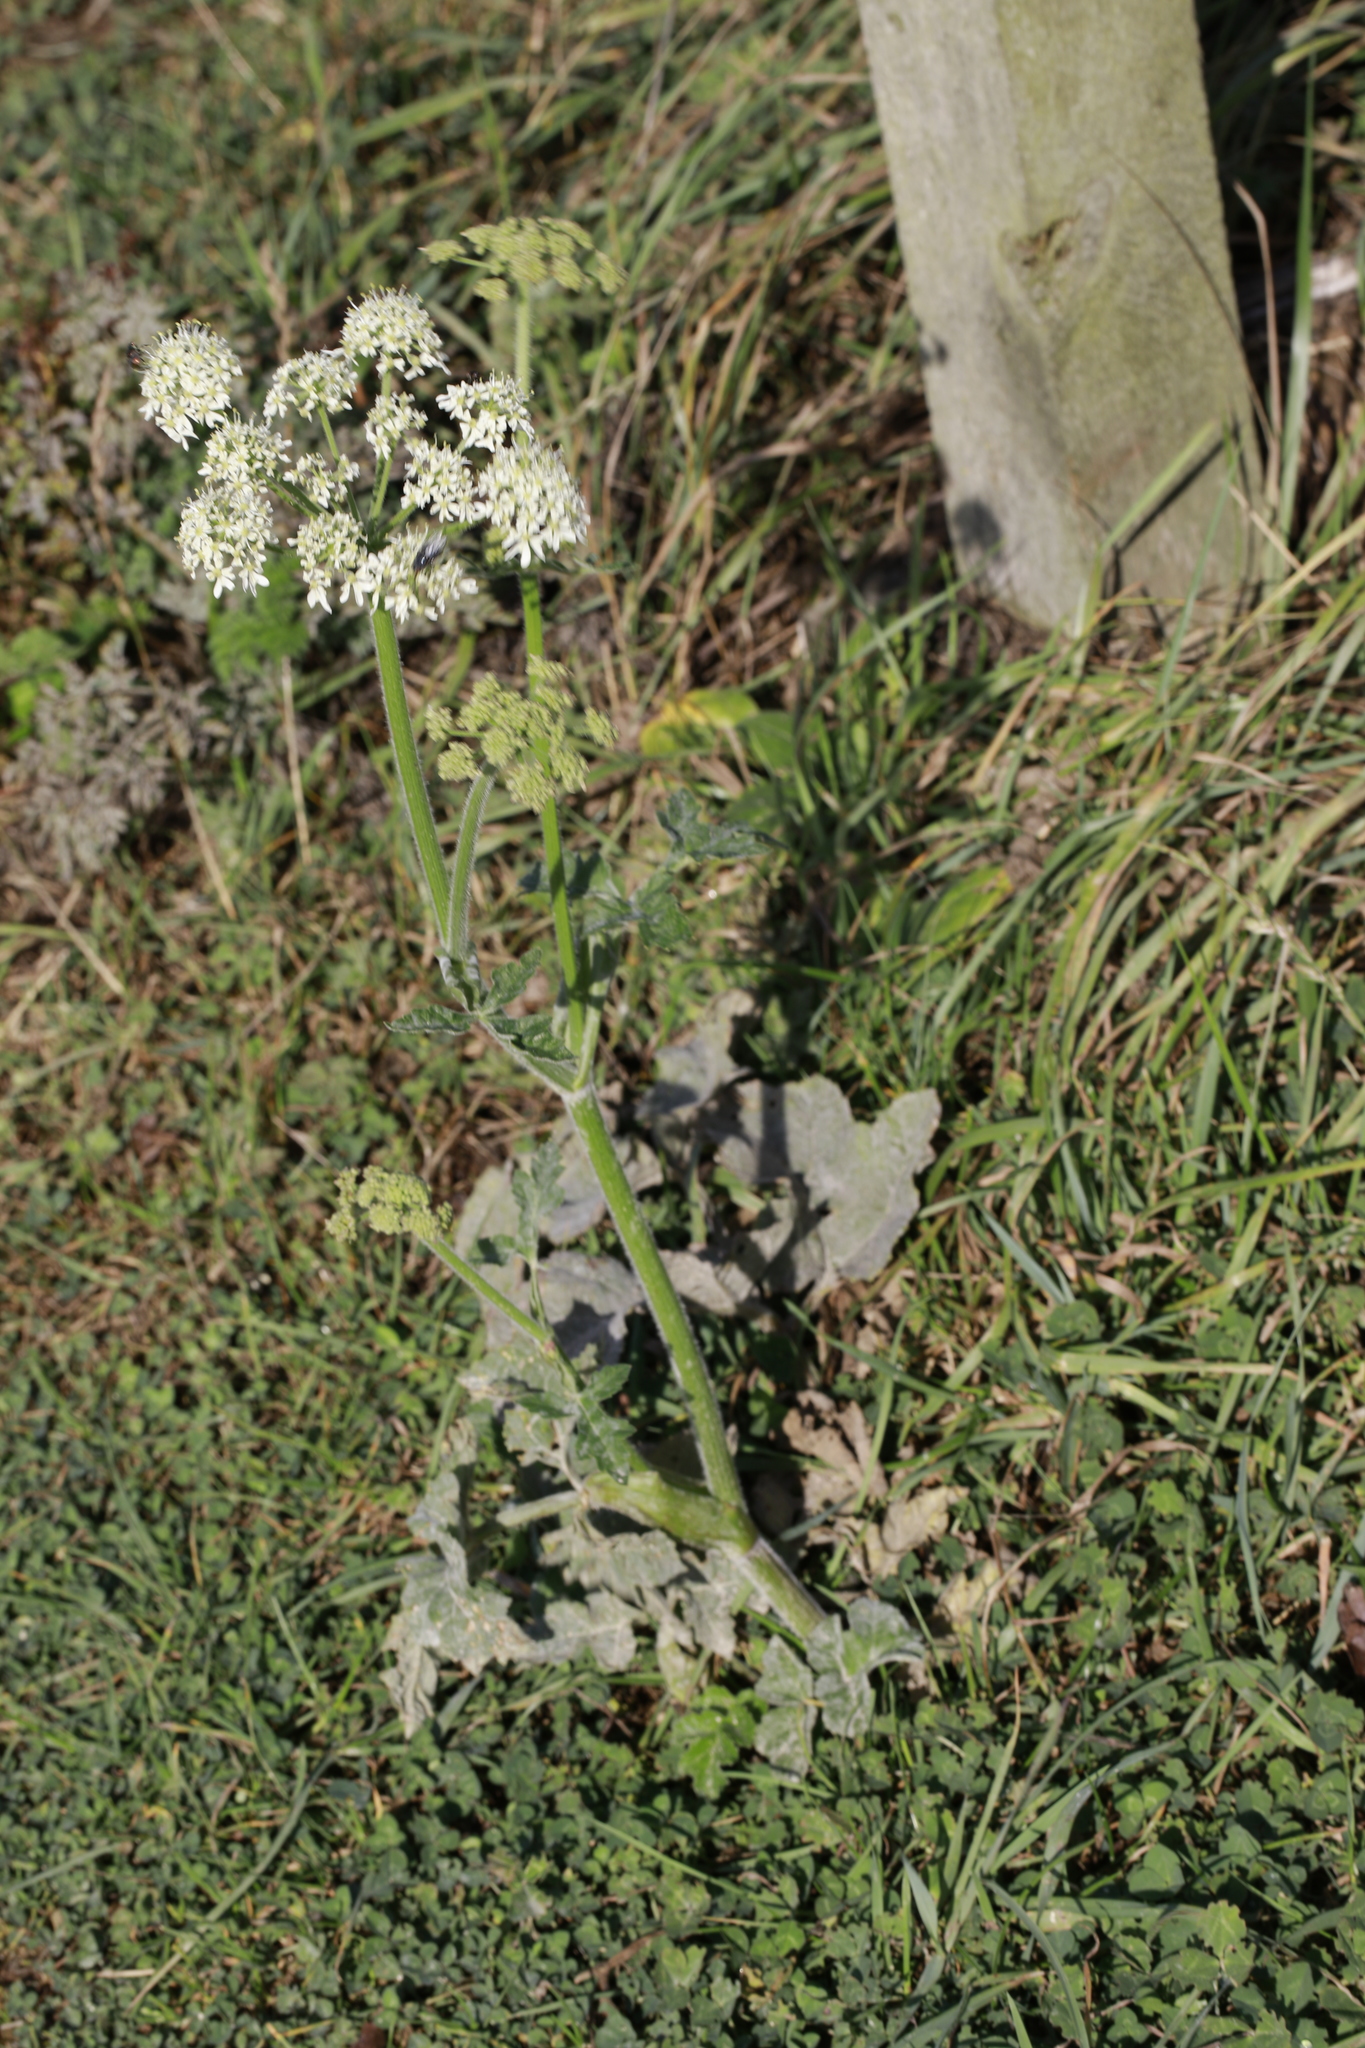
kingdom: Fungi
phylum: Ascomycota
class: Leotiomycetes
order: Helotiales
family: Erysiphaceae
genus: Erysiphe
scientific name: Erysiphe heraclei
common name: Umbellifer mildew
